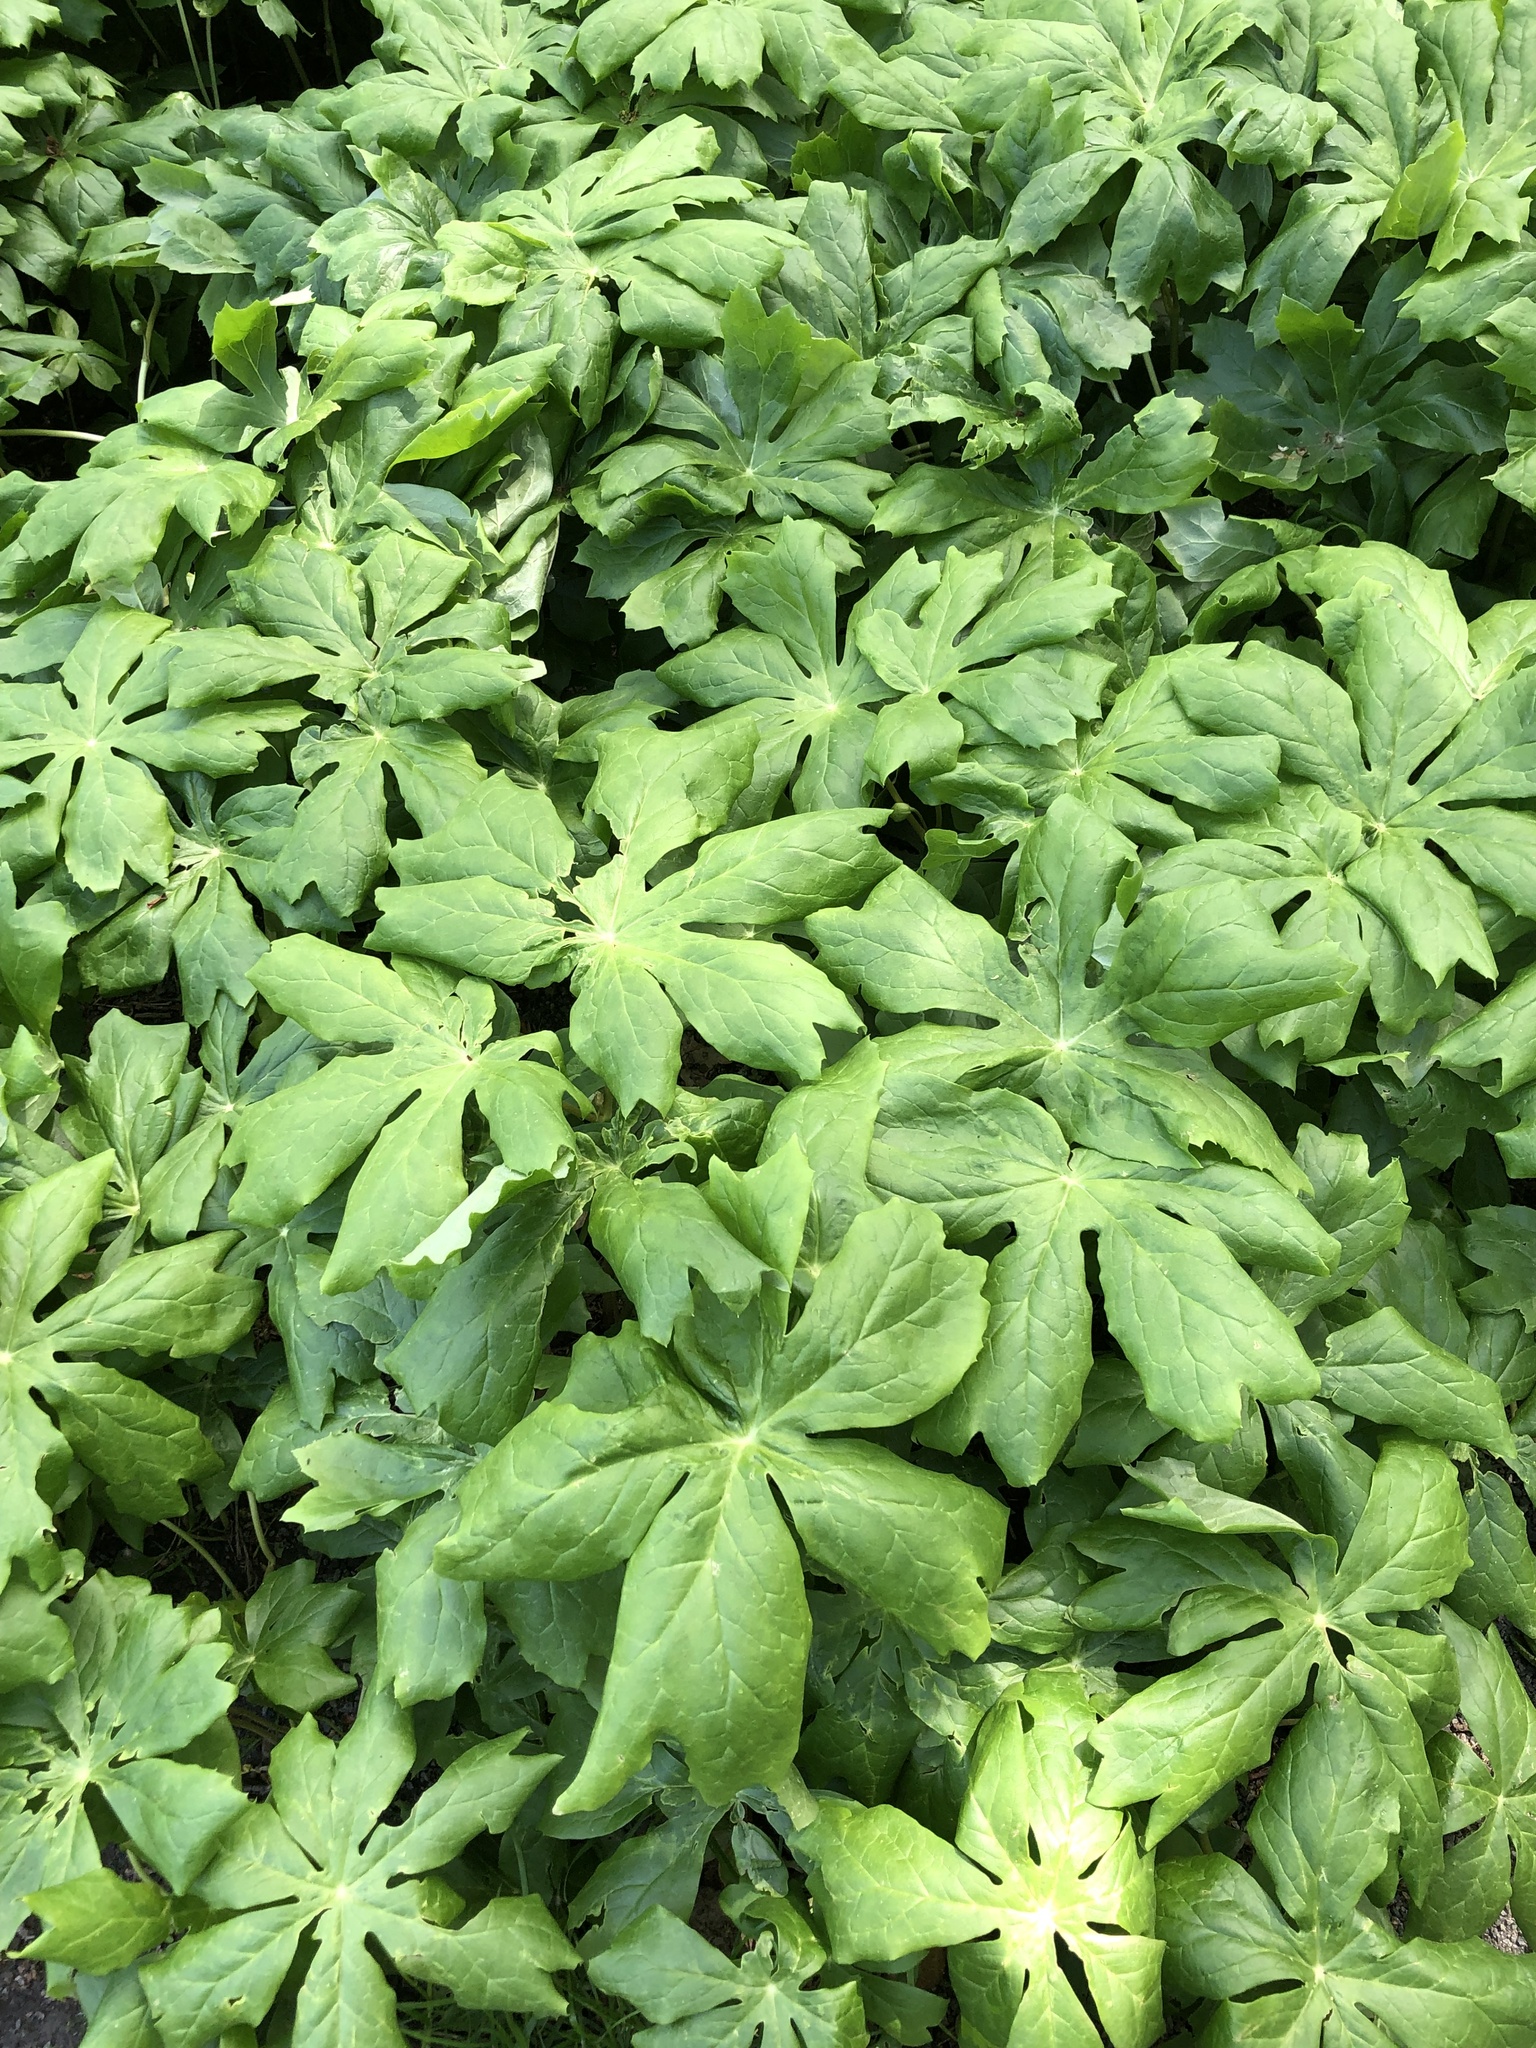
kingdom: Plantae
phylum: Tracheophyta
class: Magnoliopsida
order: Ranunculales
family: Berberidaceae
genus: Podophyllum
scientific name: Podophyllum peltatum
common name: Wild mandrake
